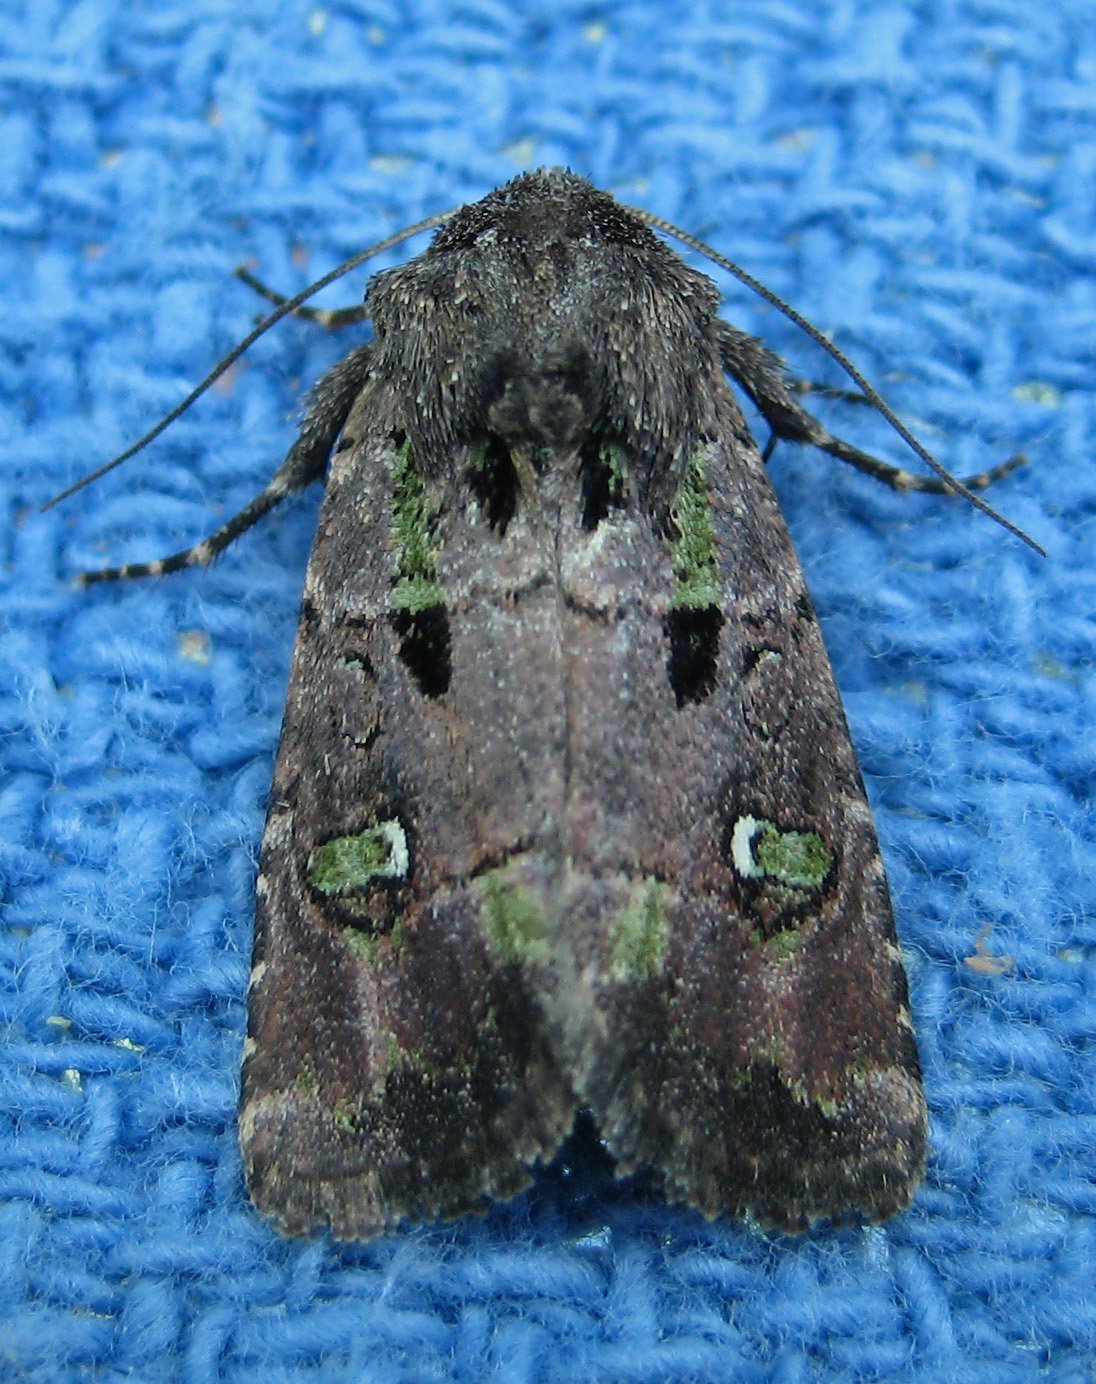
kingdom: Animalia
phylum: Arthropoda
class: Insecta
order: Lepidoptera
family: Noctuidae
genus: Lacinipolia
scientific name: Lacinipolia renigera
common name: Kidney-spotted minor
